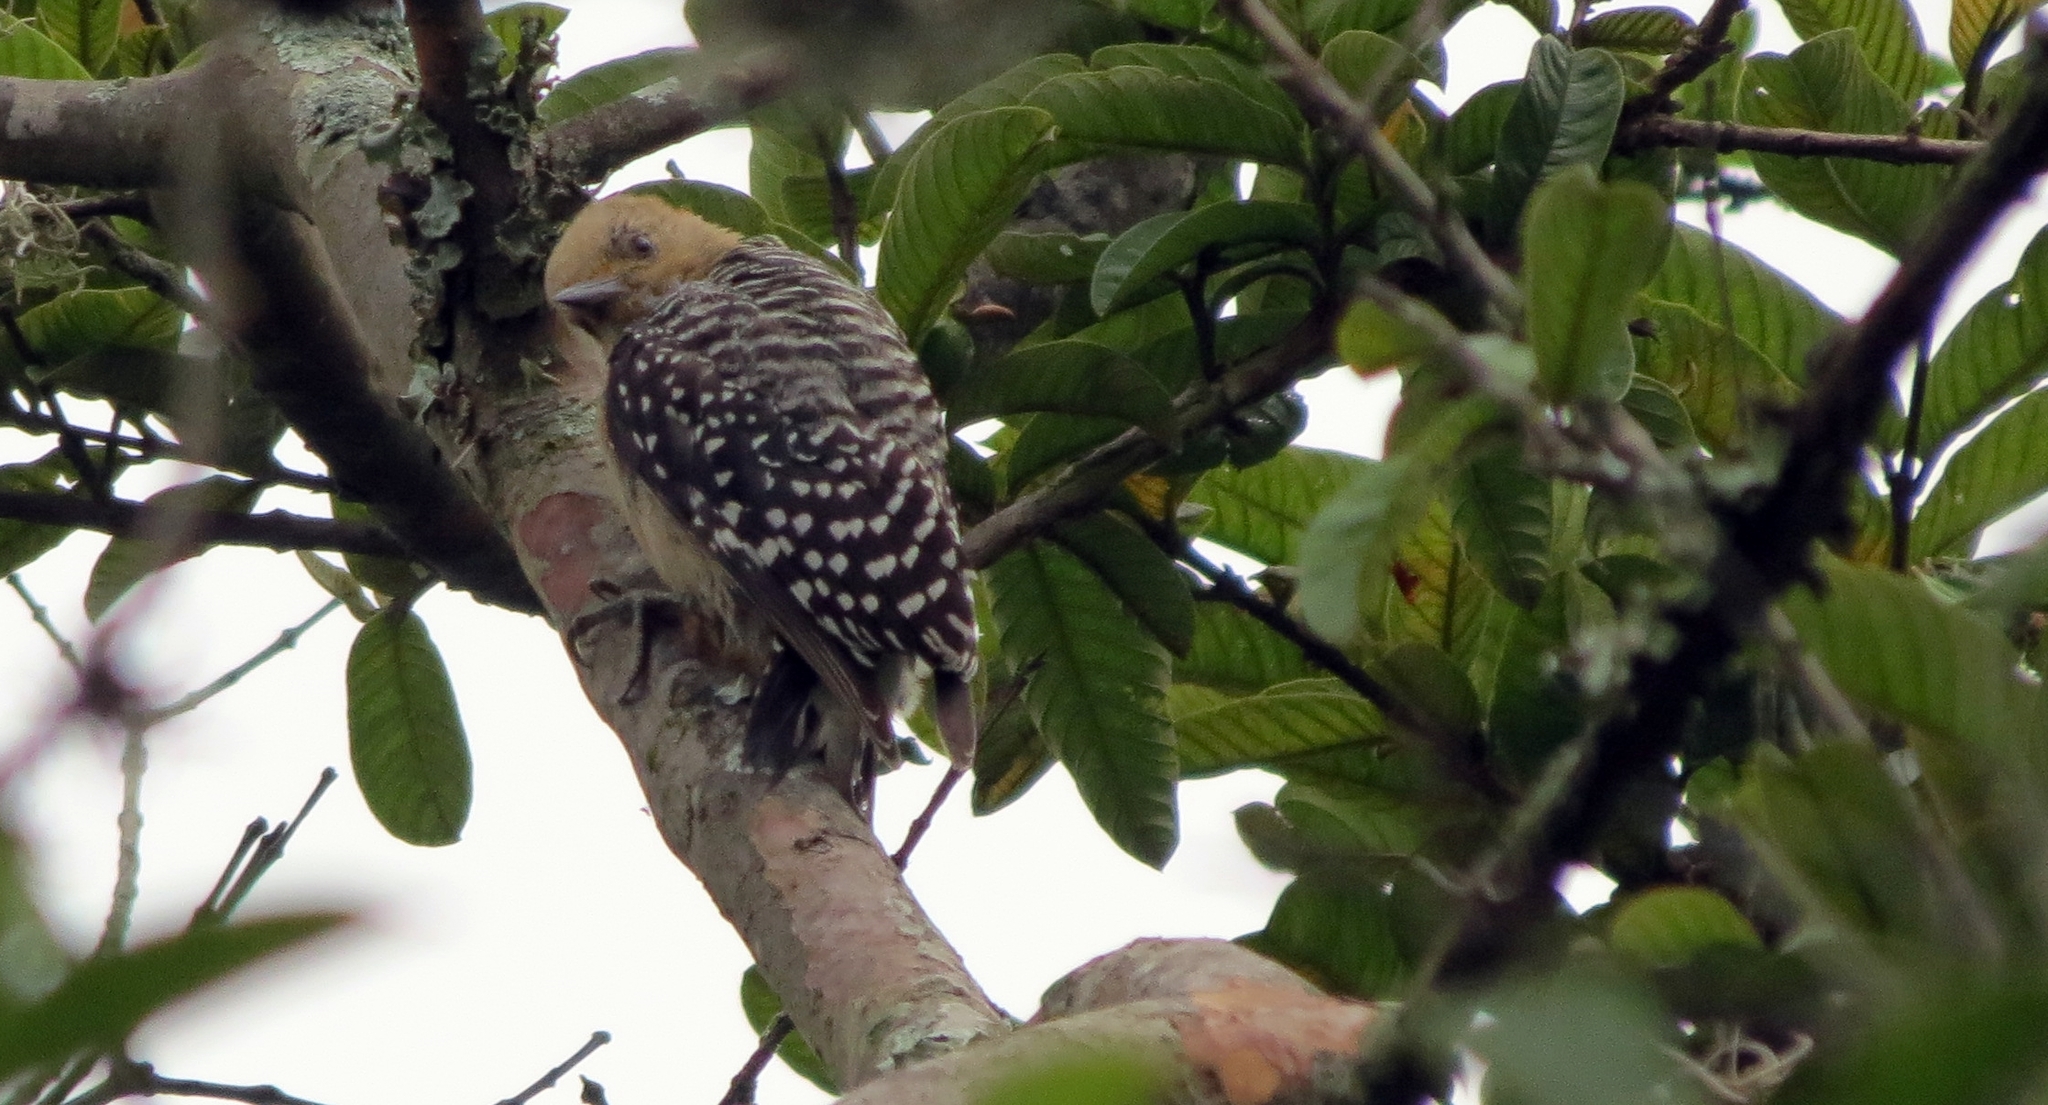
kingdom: Animalia
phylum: Chordata
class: Aves
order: Piciformes
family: Picidae
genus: Melanerpes
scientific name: Melanerpes rubricapillus
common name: Red-crowned woodpecker
